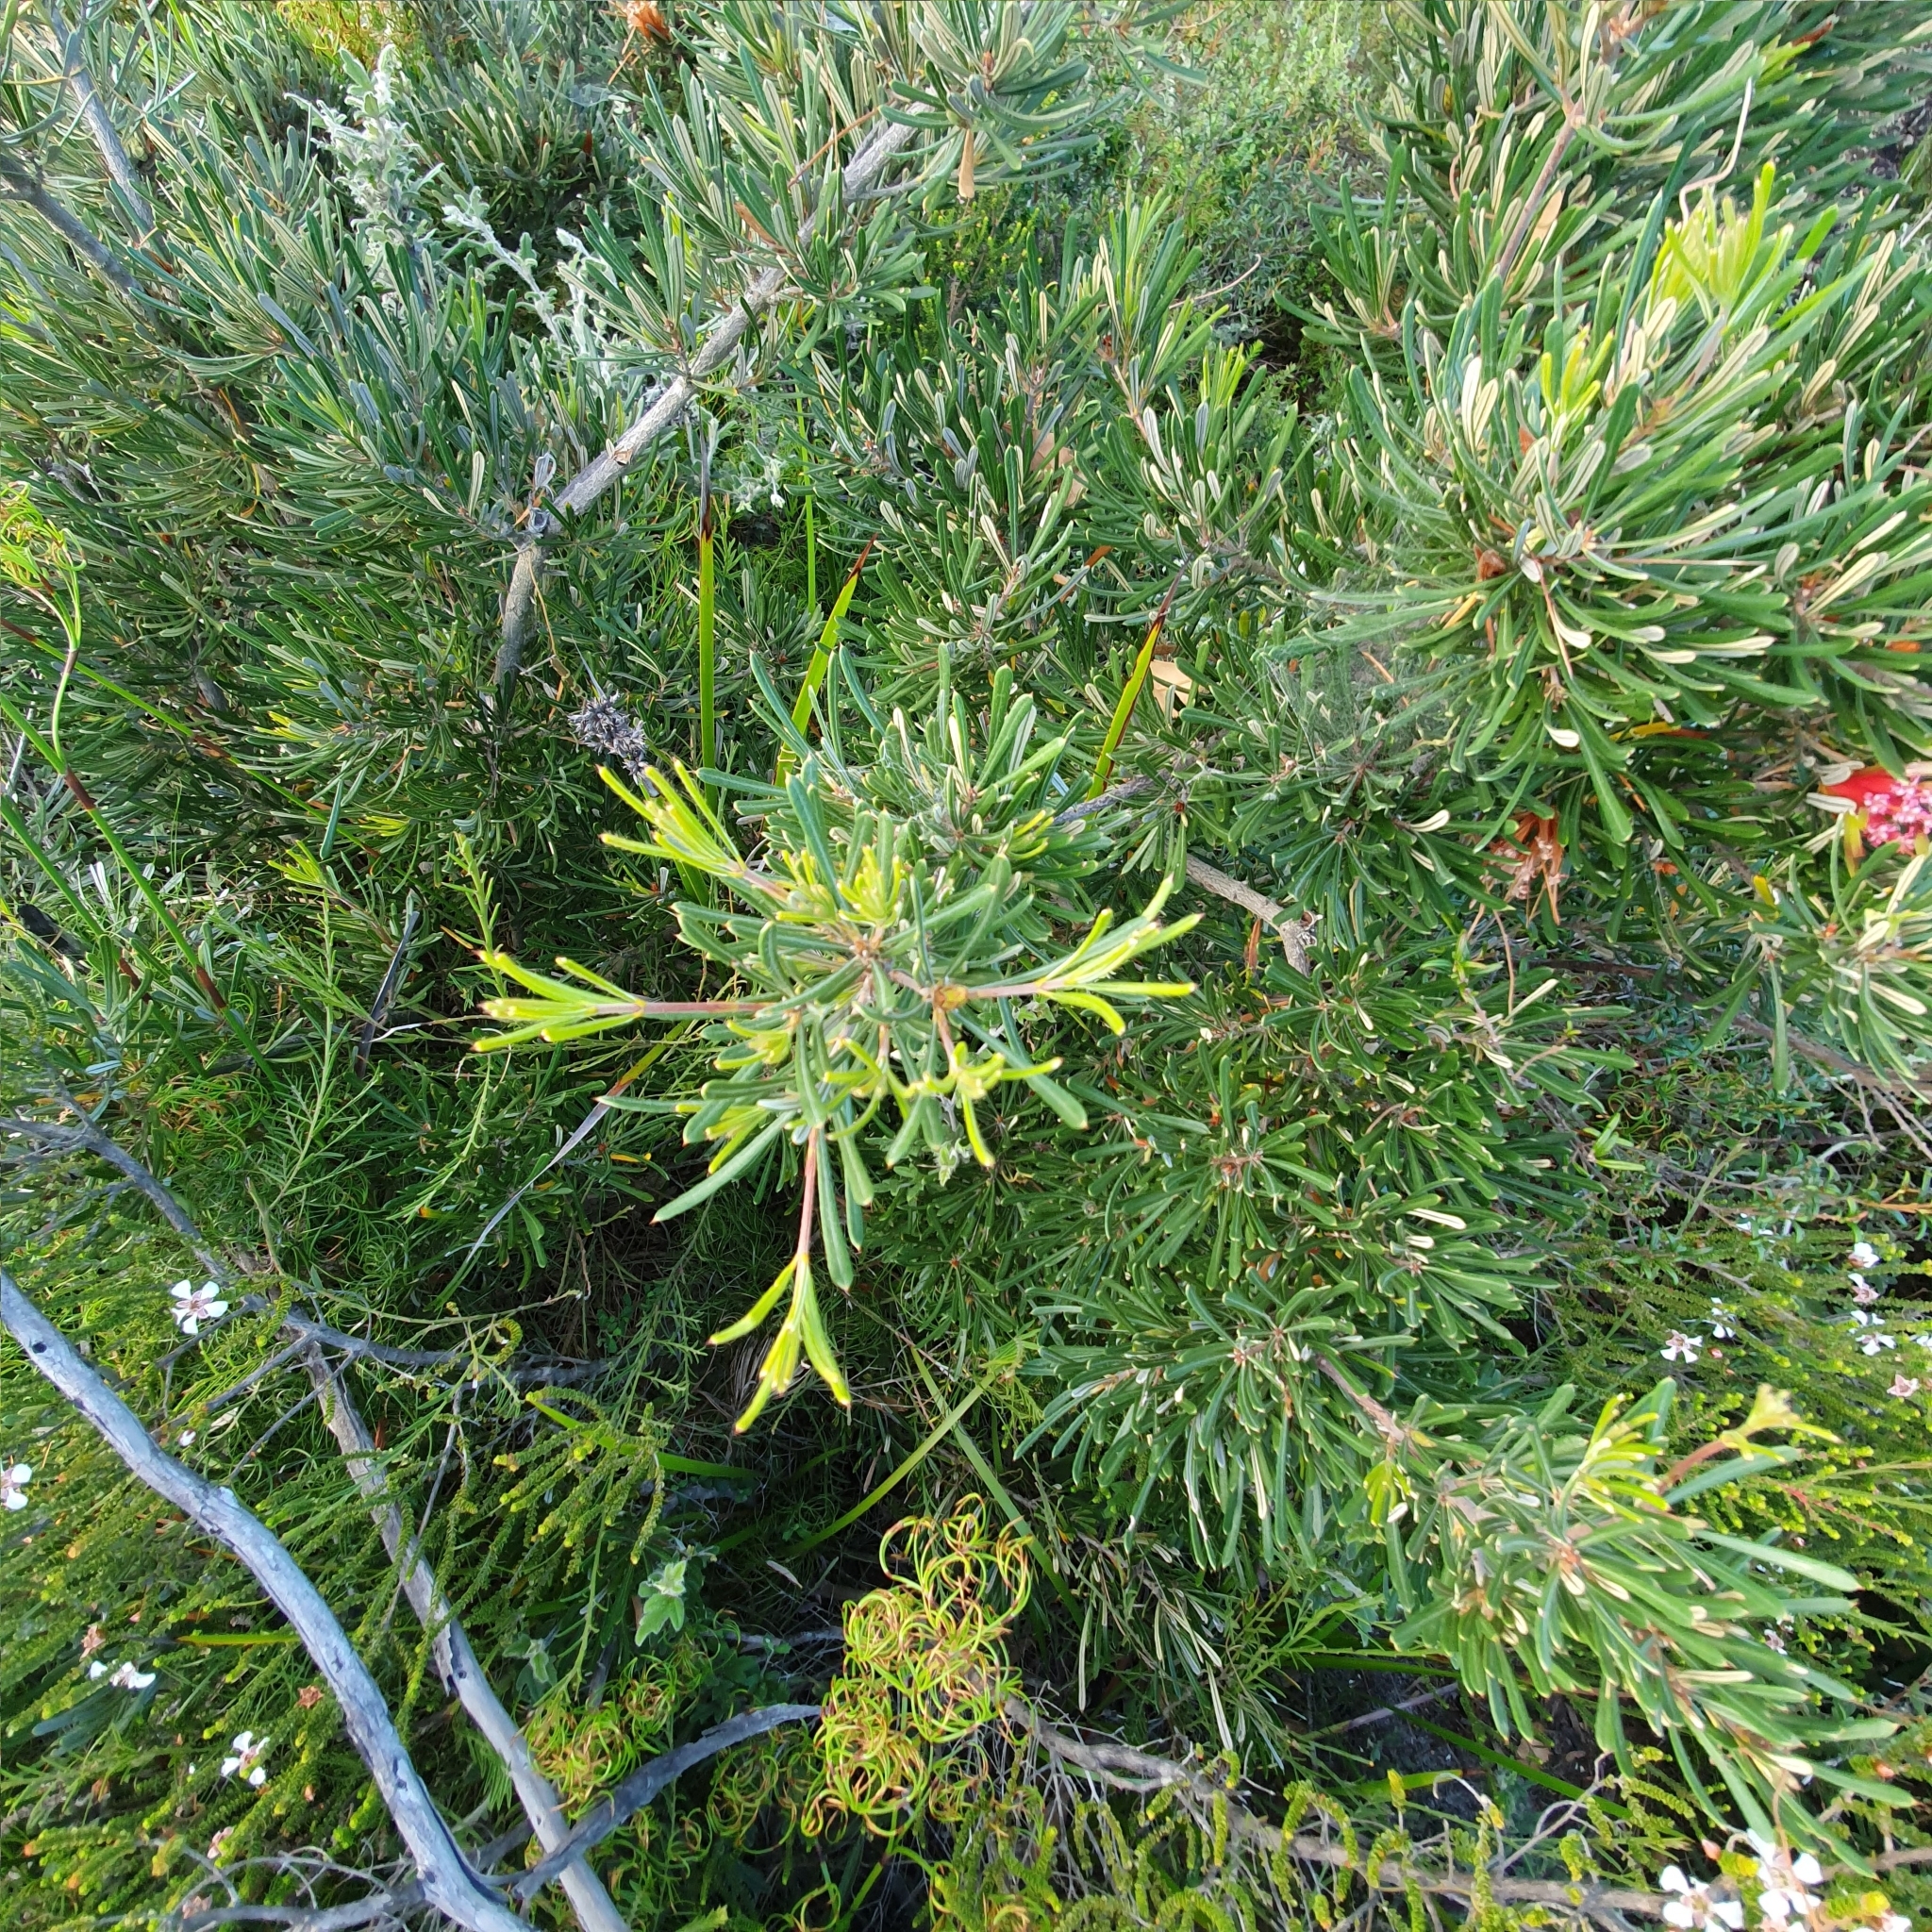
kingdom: Plantae
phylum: Tracheophyta
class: Magnoliopsida
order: Proteales
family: Proteaceae
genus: Lambertia
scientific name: Lambertia formosa
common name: Mountain-devil
